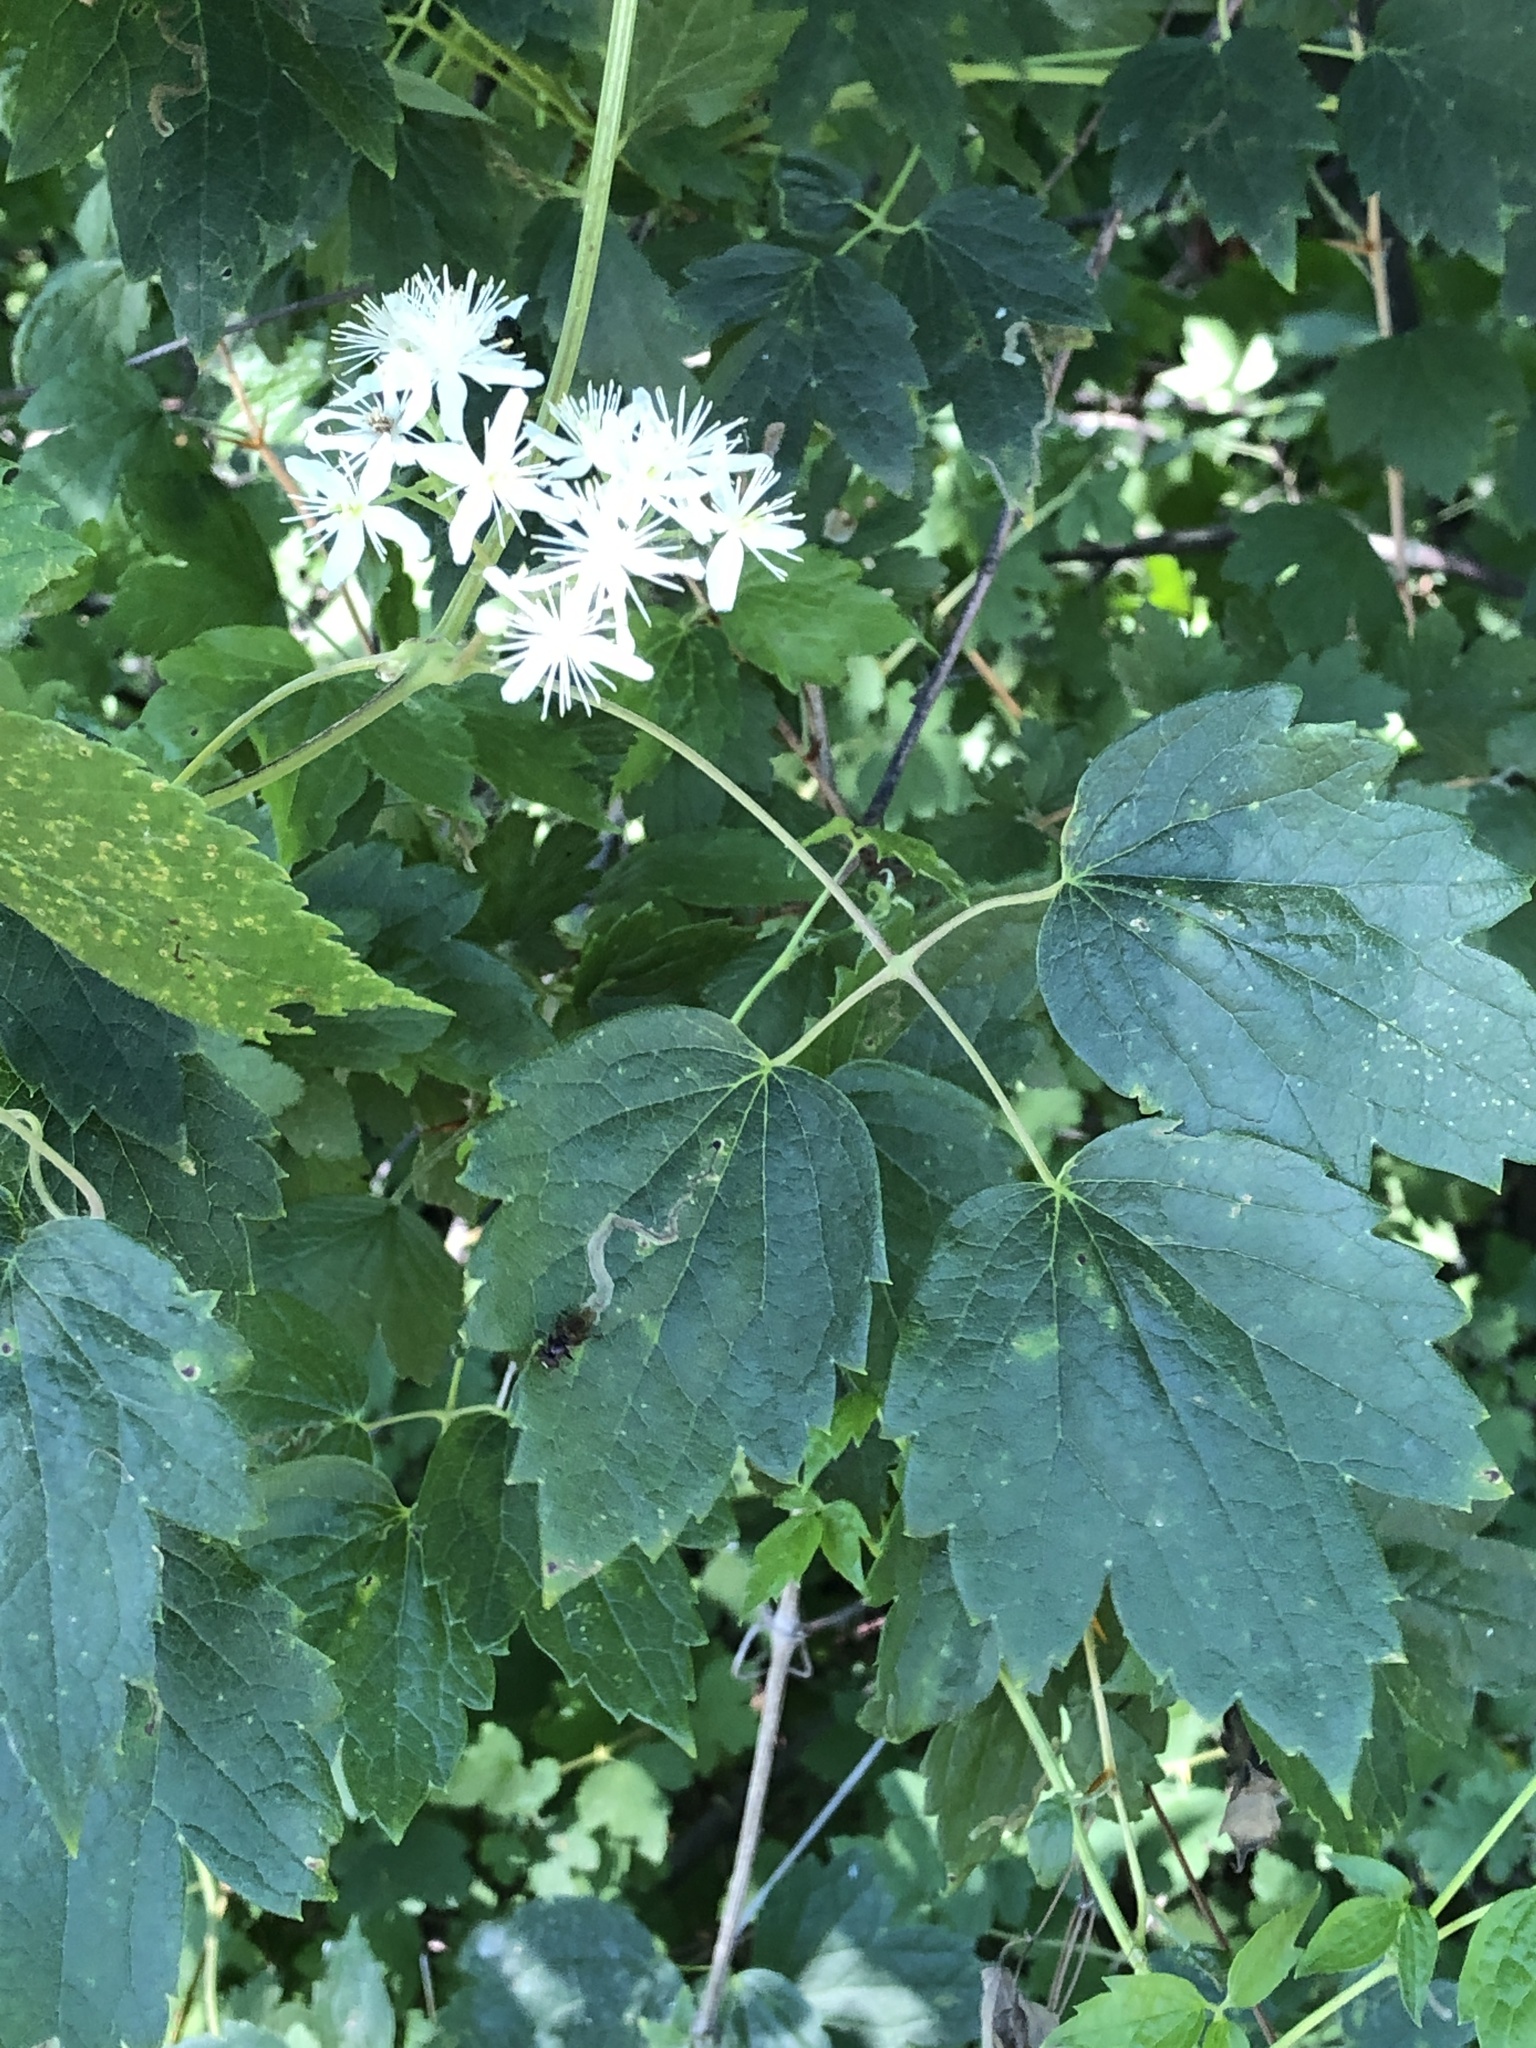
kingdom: Plantae
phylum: Tracheophyta
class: Magnoliopsida
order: Ranunculales
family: Ranunculaceae
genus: Clematis
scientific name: Clematis virginiana
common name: Virgin's-bower
